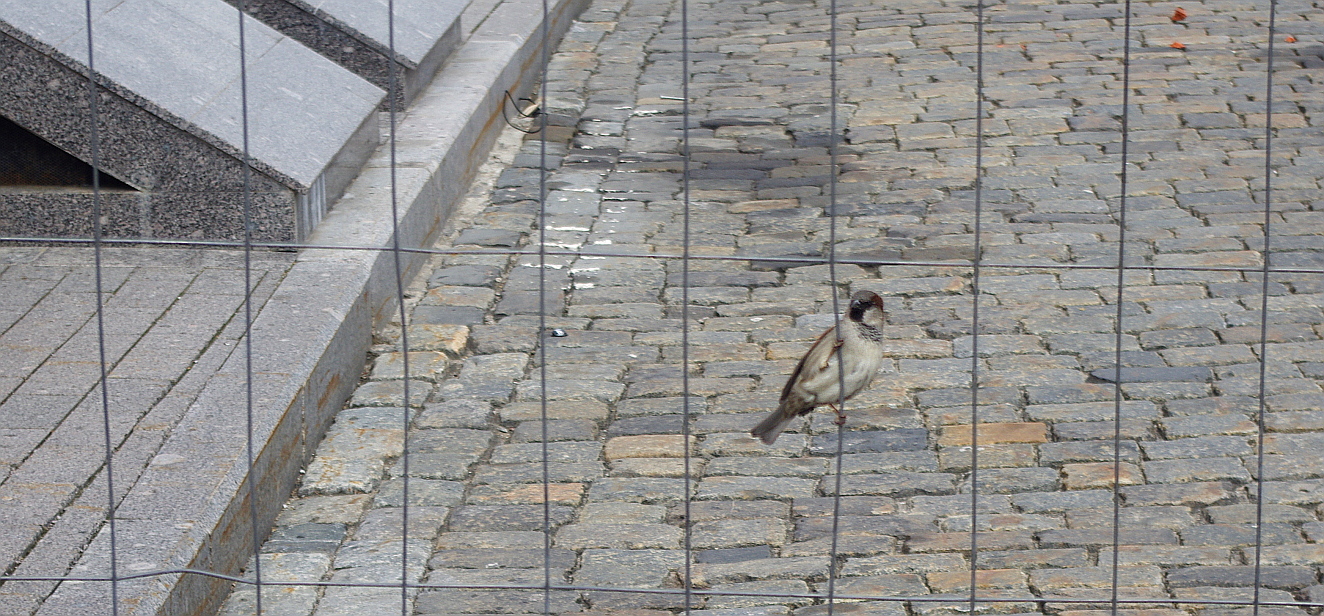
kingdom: Animalia
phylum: Chordata
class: Aves
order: Passeriformes
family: Passeridae
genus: Passer
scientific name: Passer domesticus
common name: House sparrow
